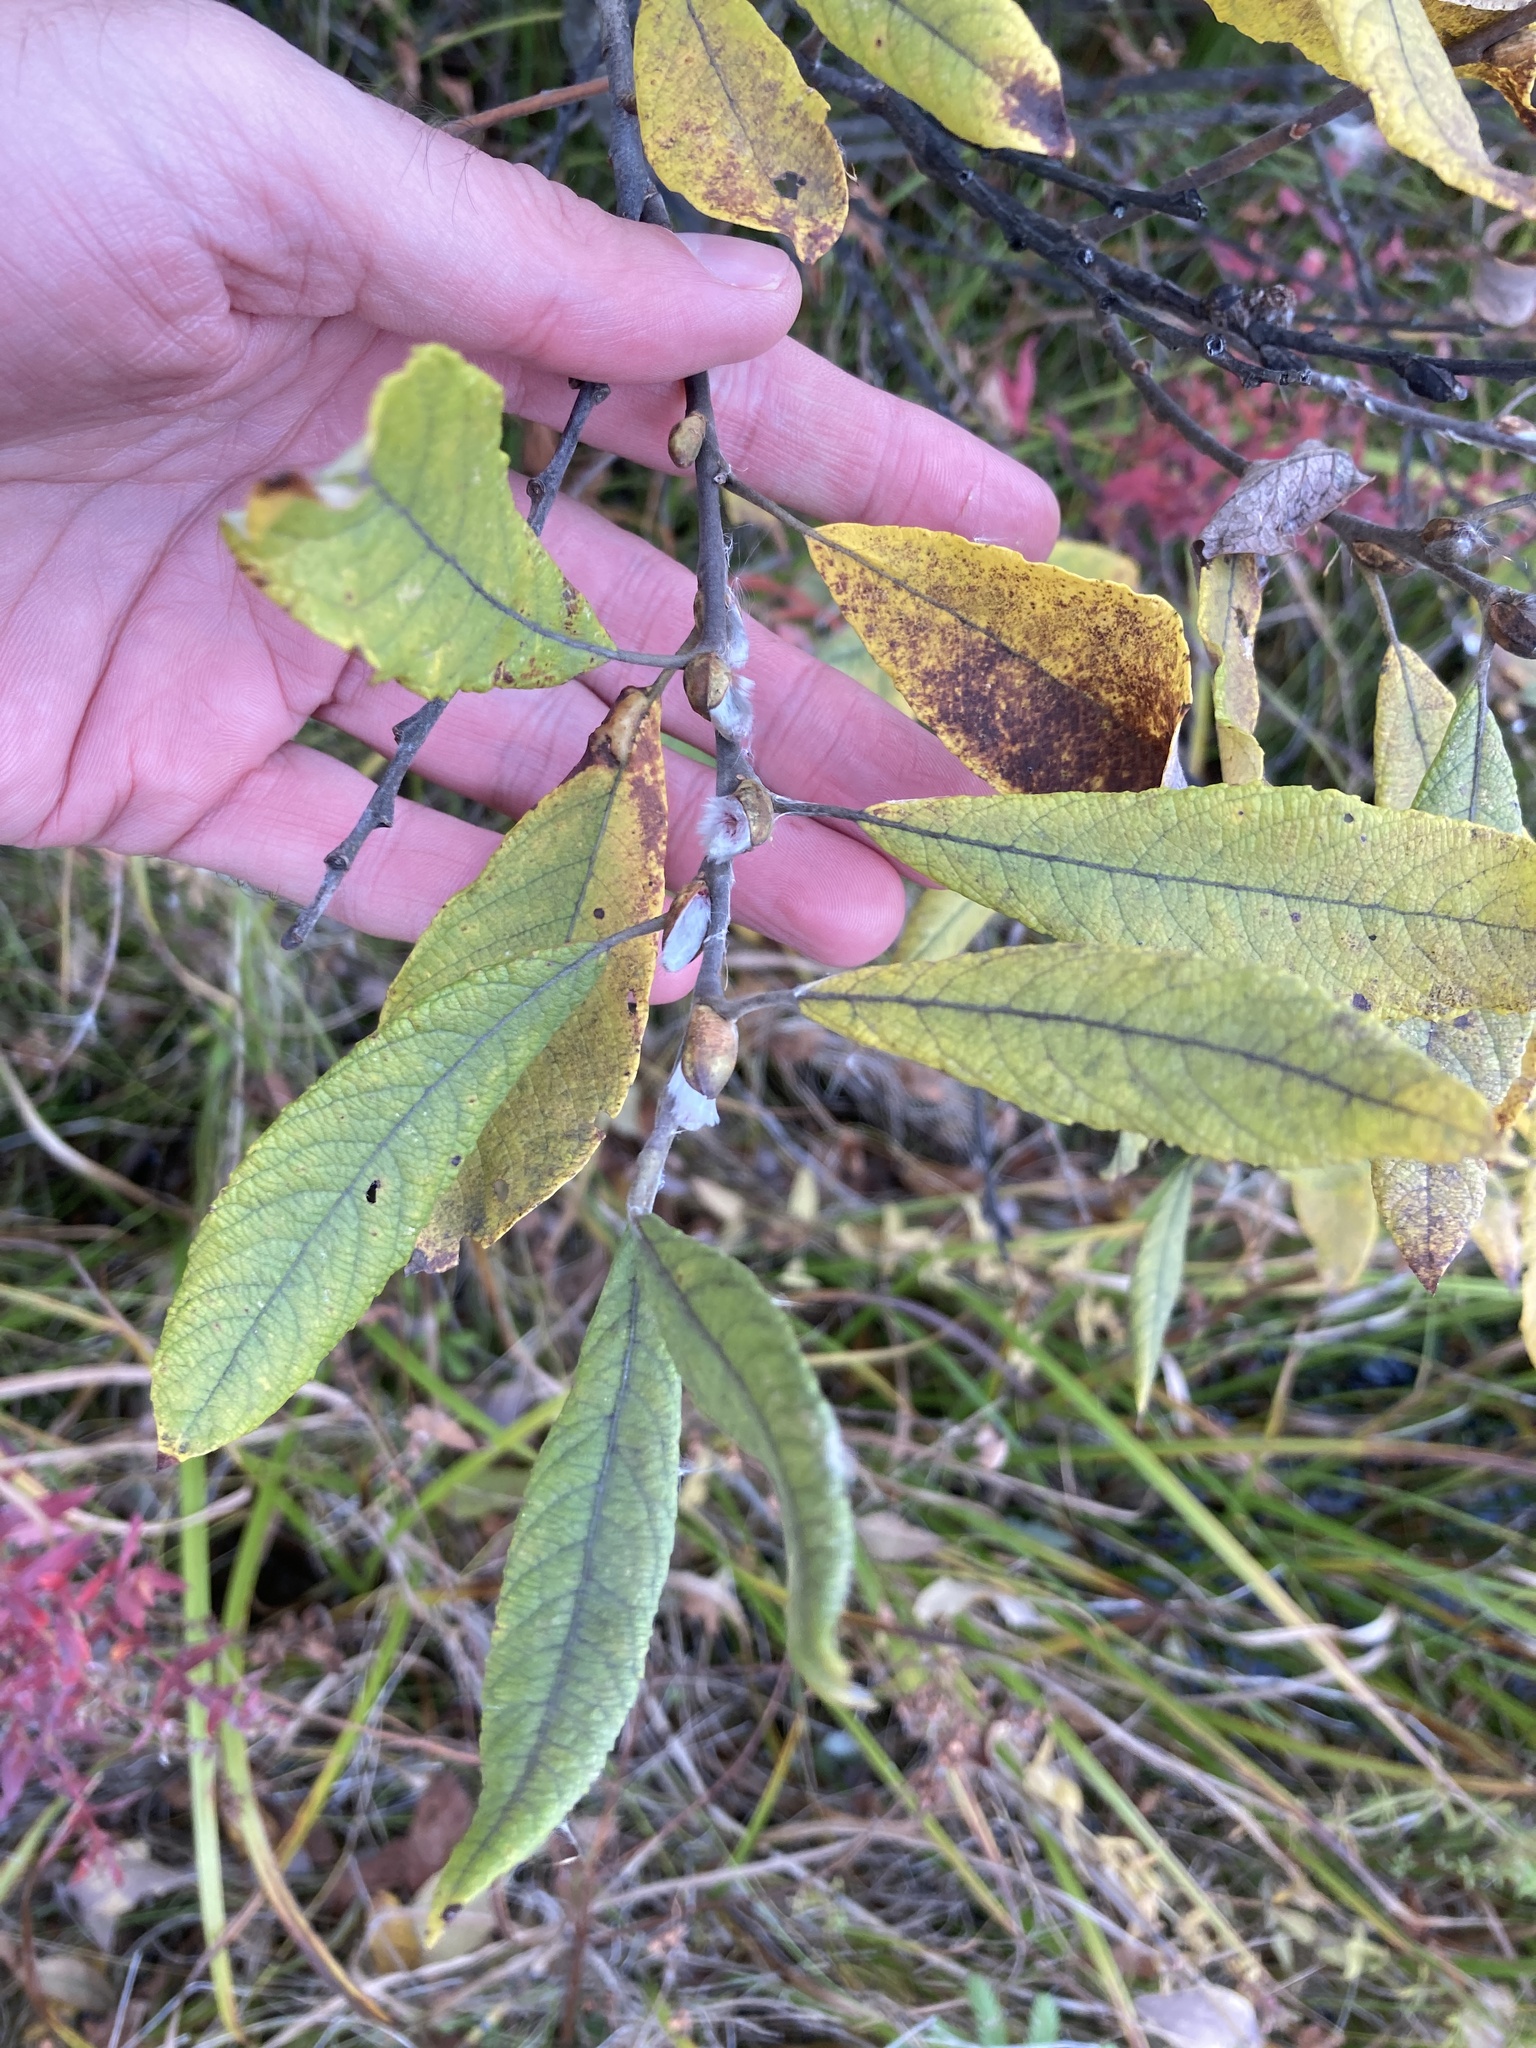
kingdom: Plantae
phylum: Tracheophyta
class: Magnoliopsida
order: Malpighiales
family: Salicaceae
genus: Salix
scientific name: Salix cinerea
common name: Common sallow
